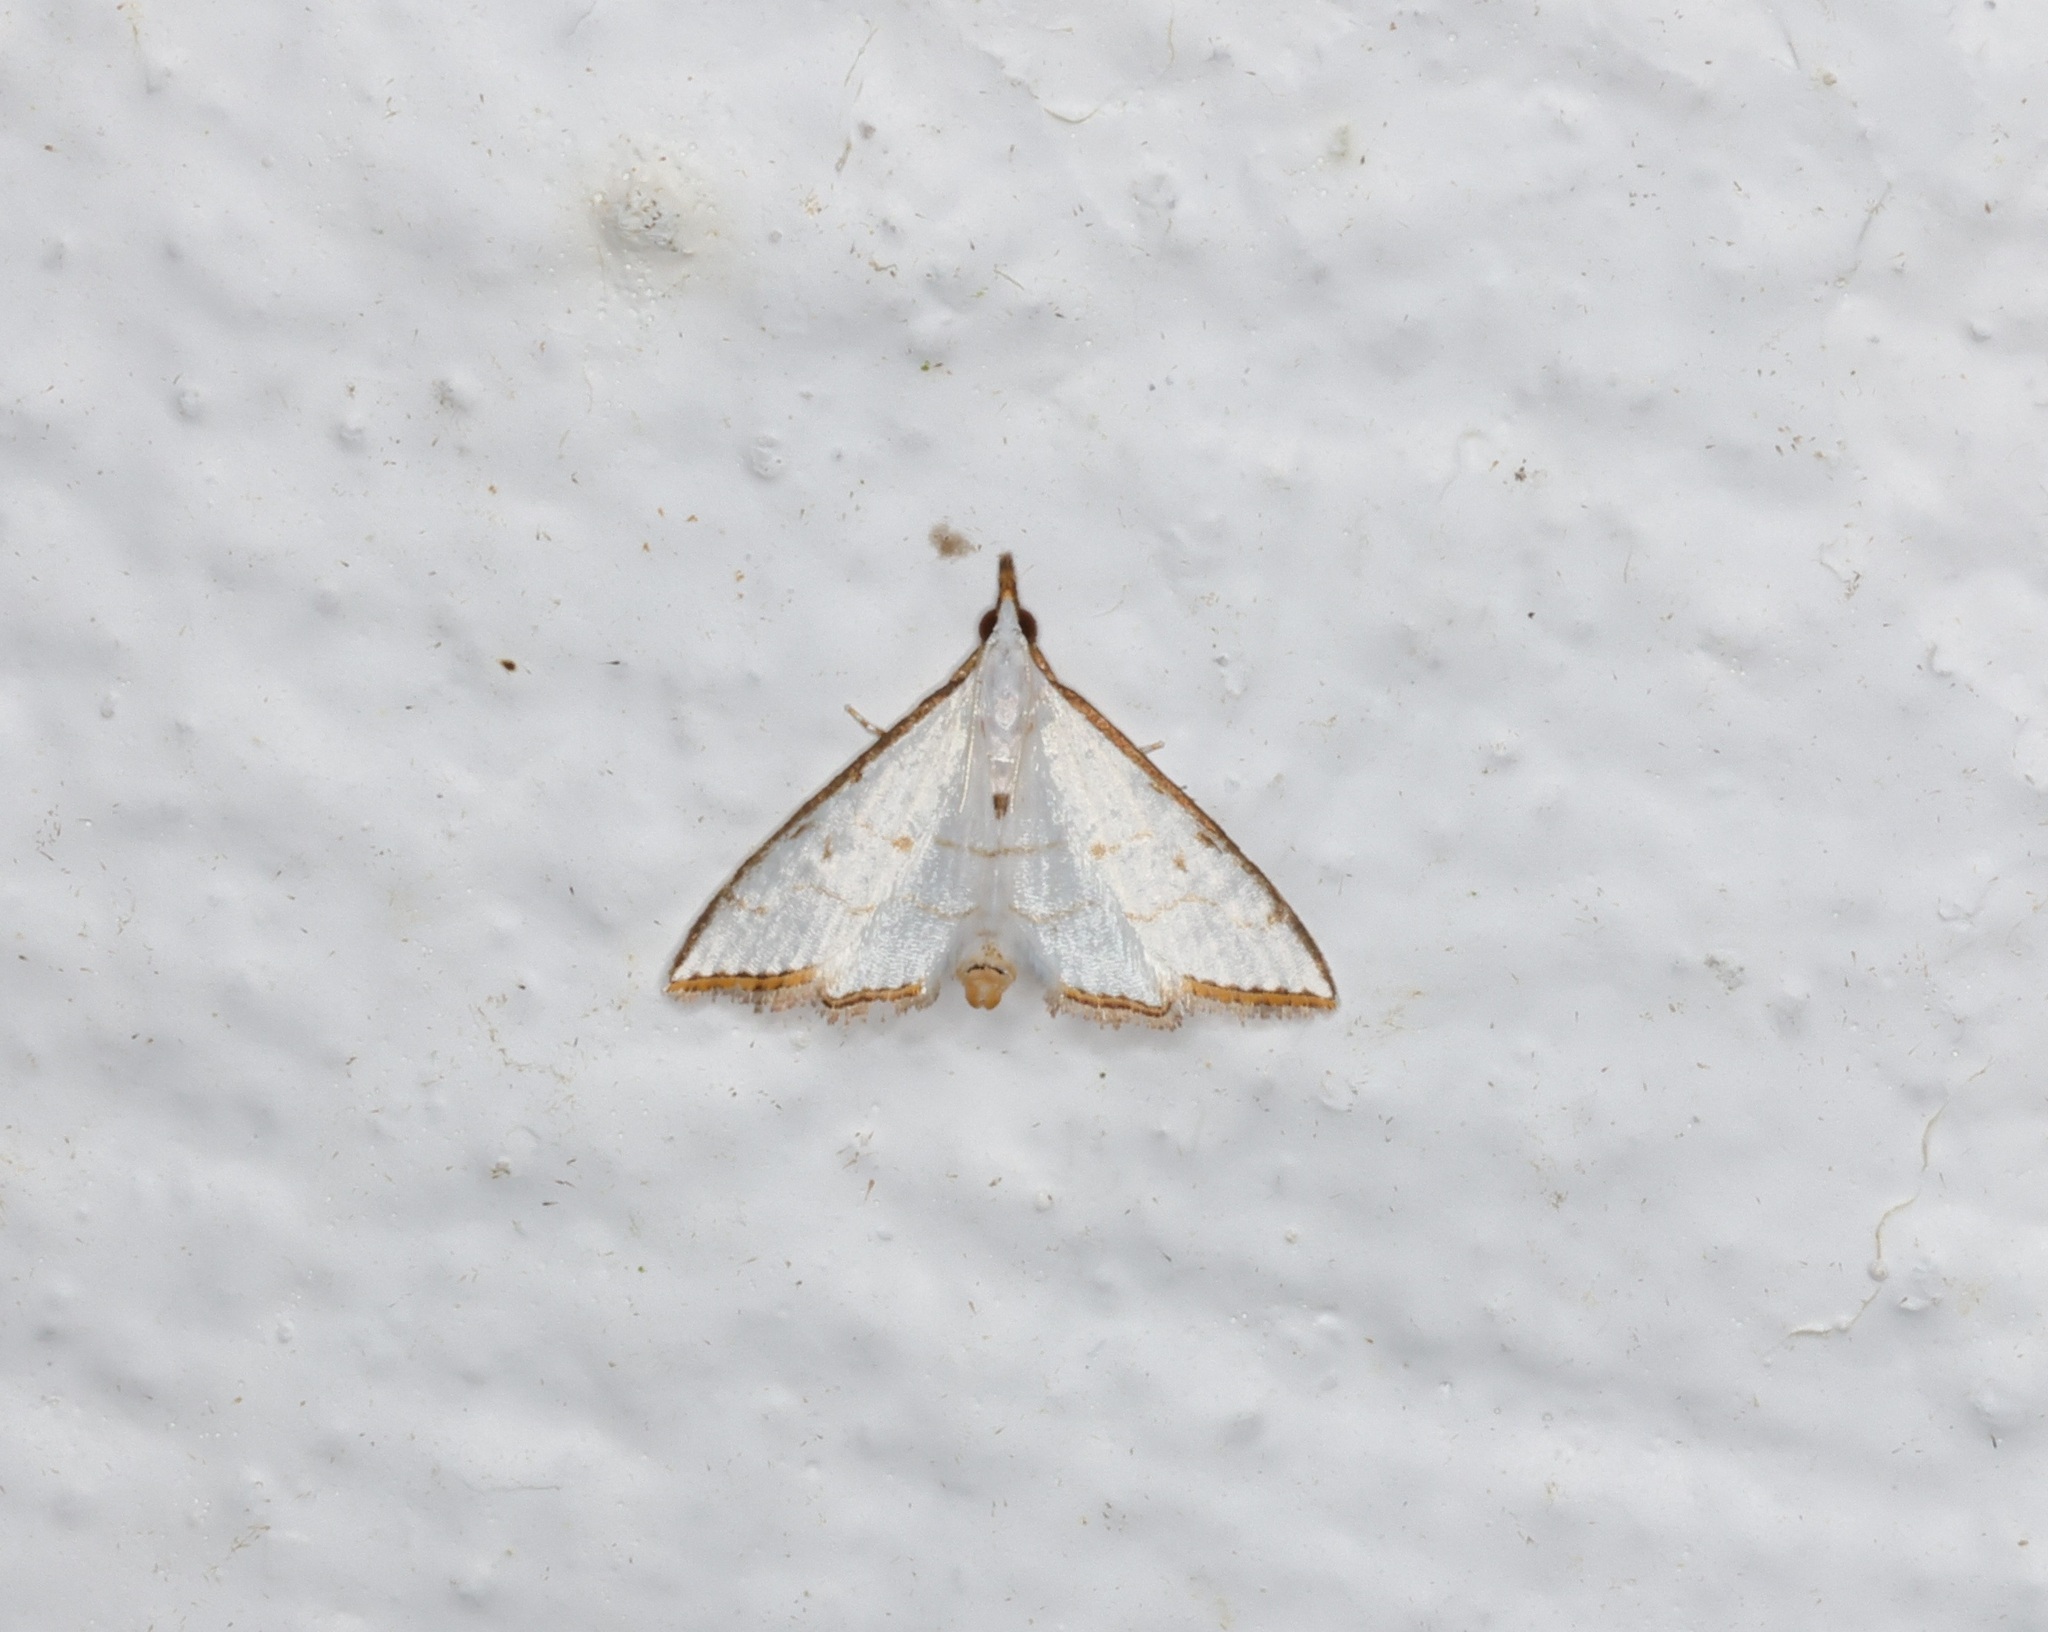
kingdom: Animalia
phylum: Arthropoda
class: Insecta
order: Lepidoptera
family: Crambidae
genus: Ramila
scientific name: Ramila acciusalis
